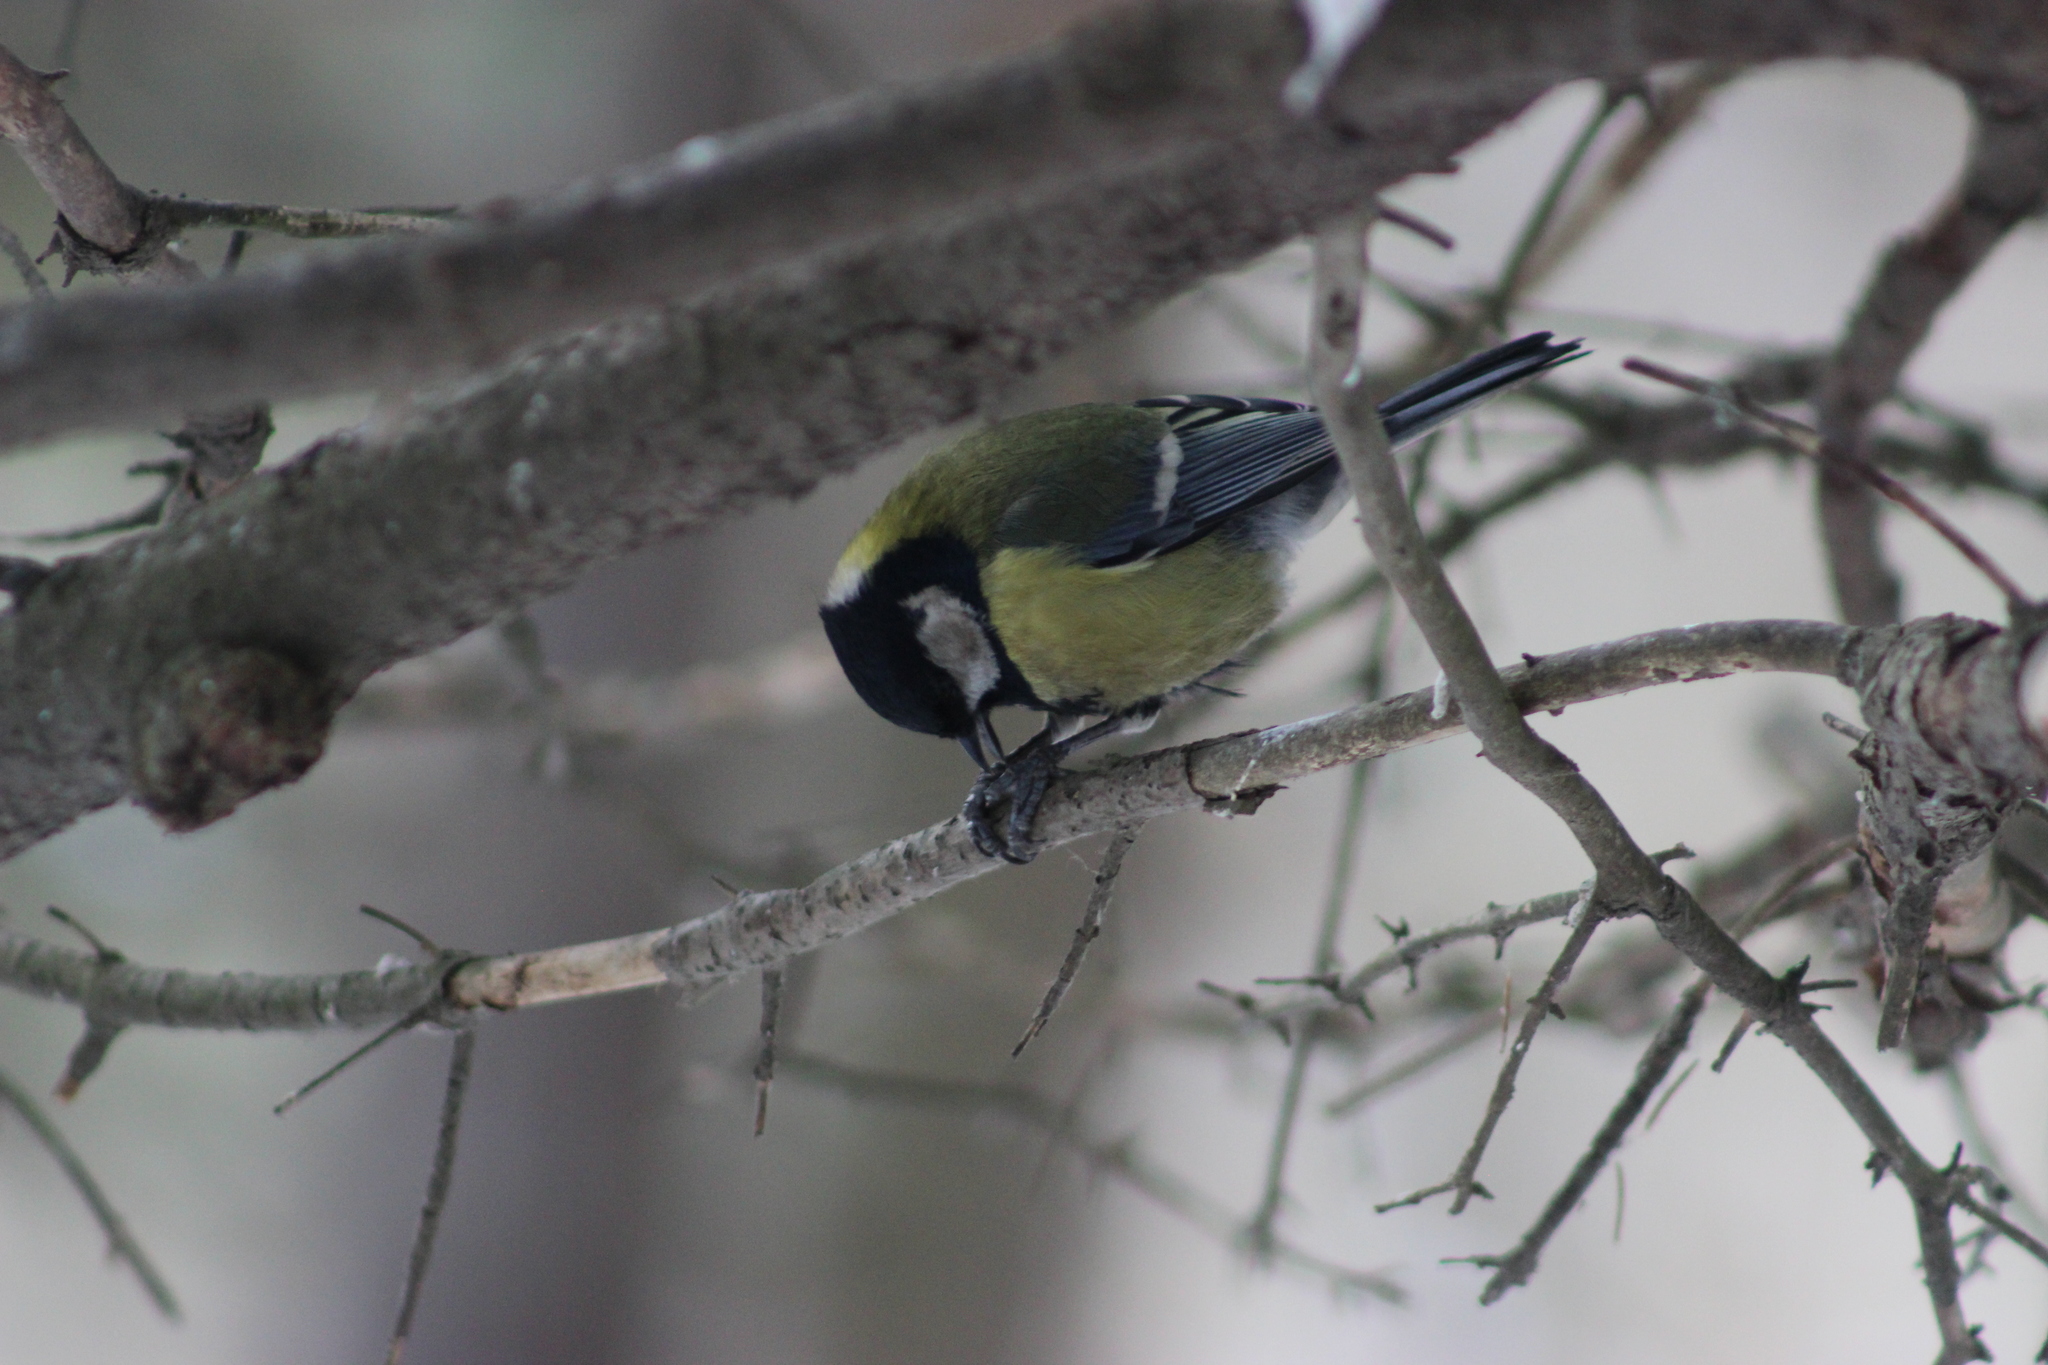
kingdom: Animalia
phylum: Chordata
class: Aves
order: Passeriformes
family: Paridae
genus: Parus
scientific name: Parus major
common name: Great tit
